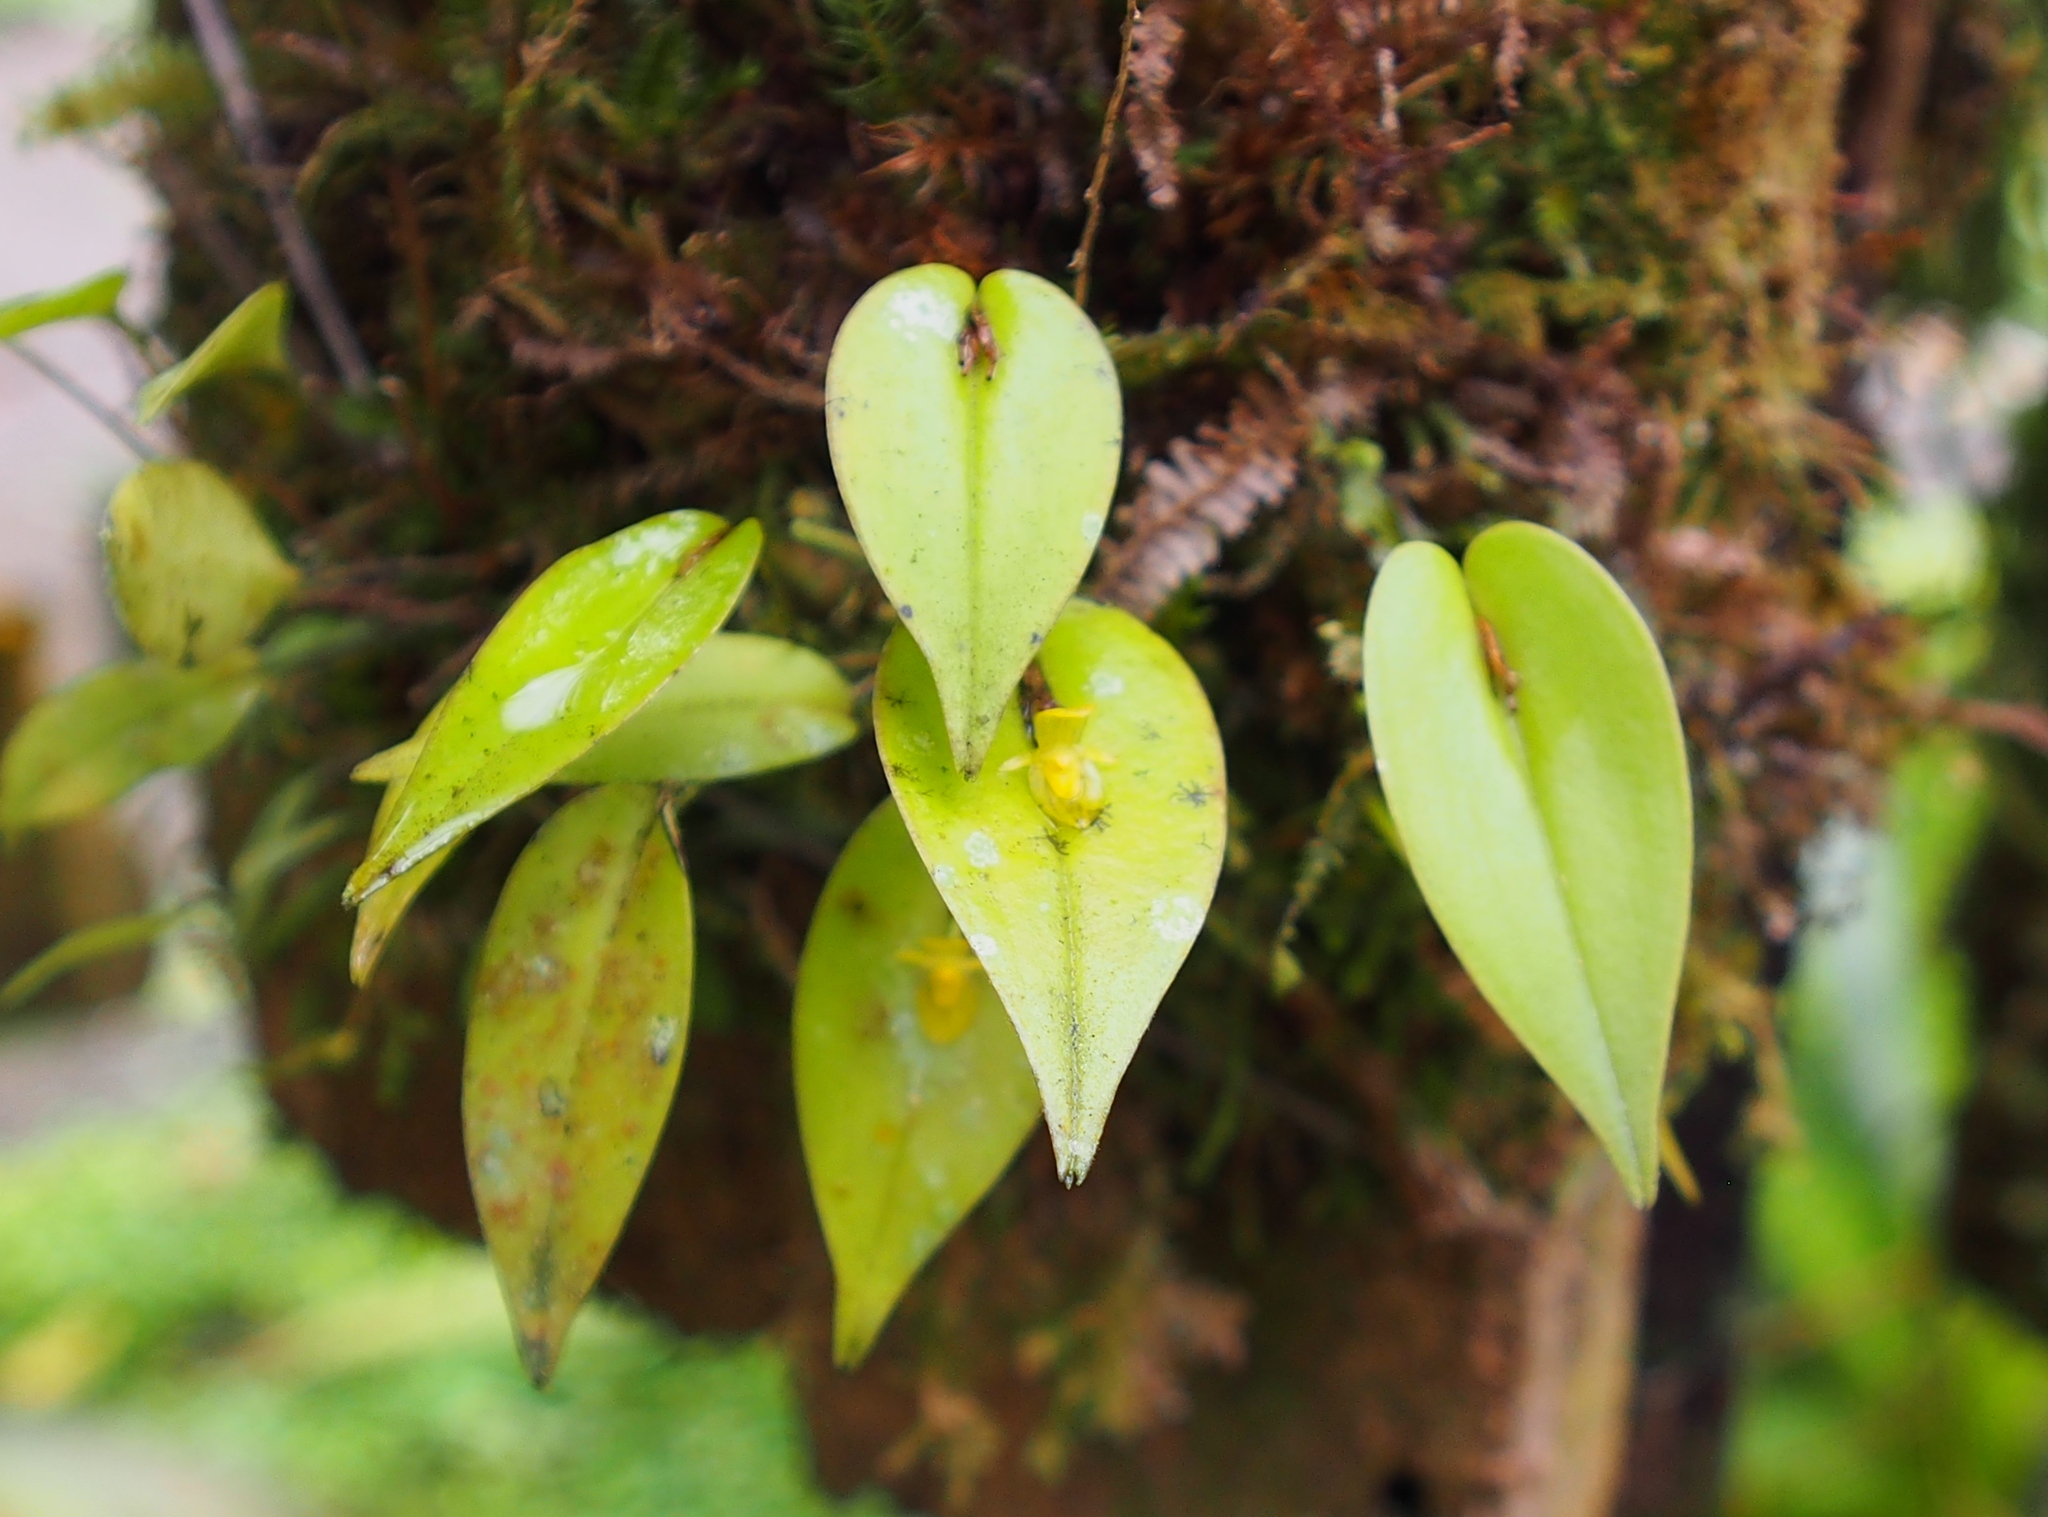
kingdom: Plantae
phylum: Tracheophyta
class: Liliopsida
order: Asparagales
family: Orchidaceae
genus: Pleurothallis
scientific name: Pleurothallis phyllocardioides
